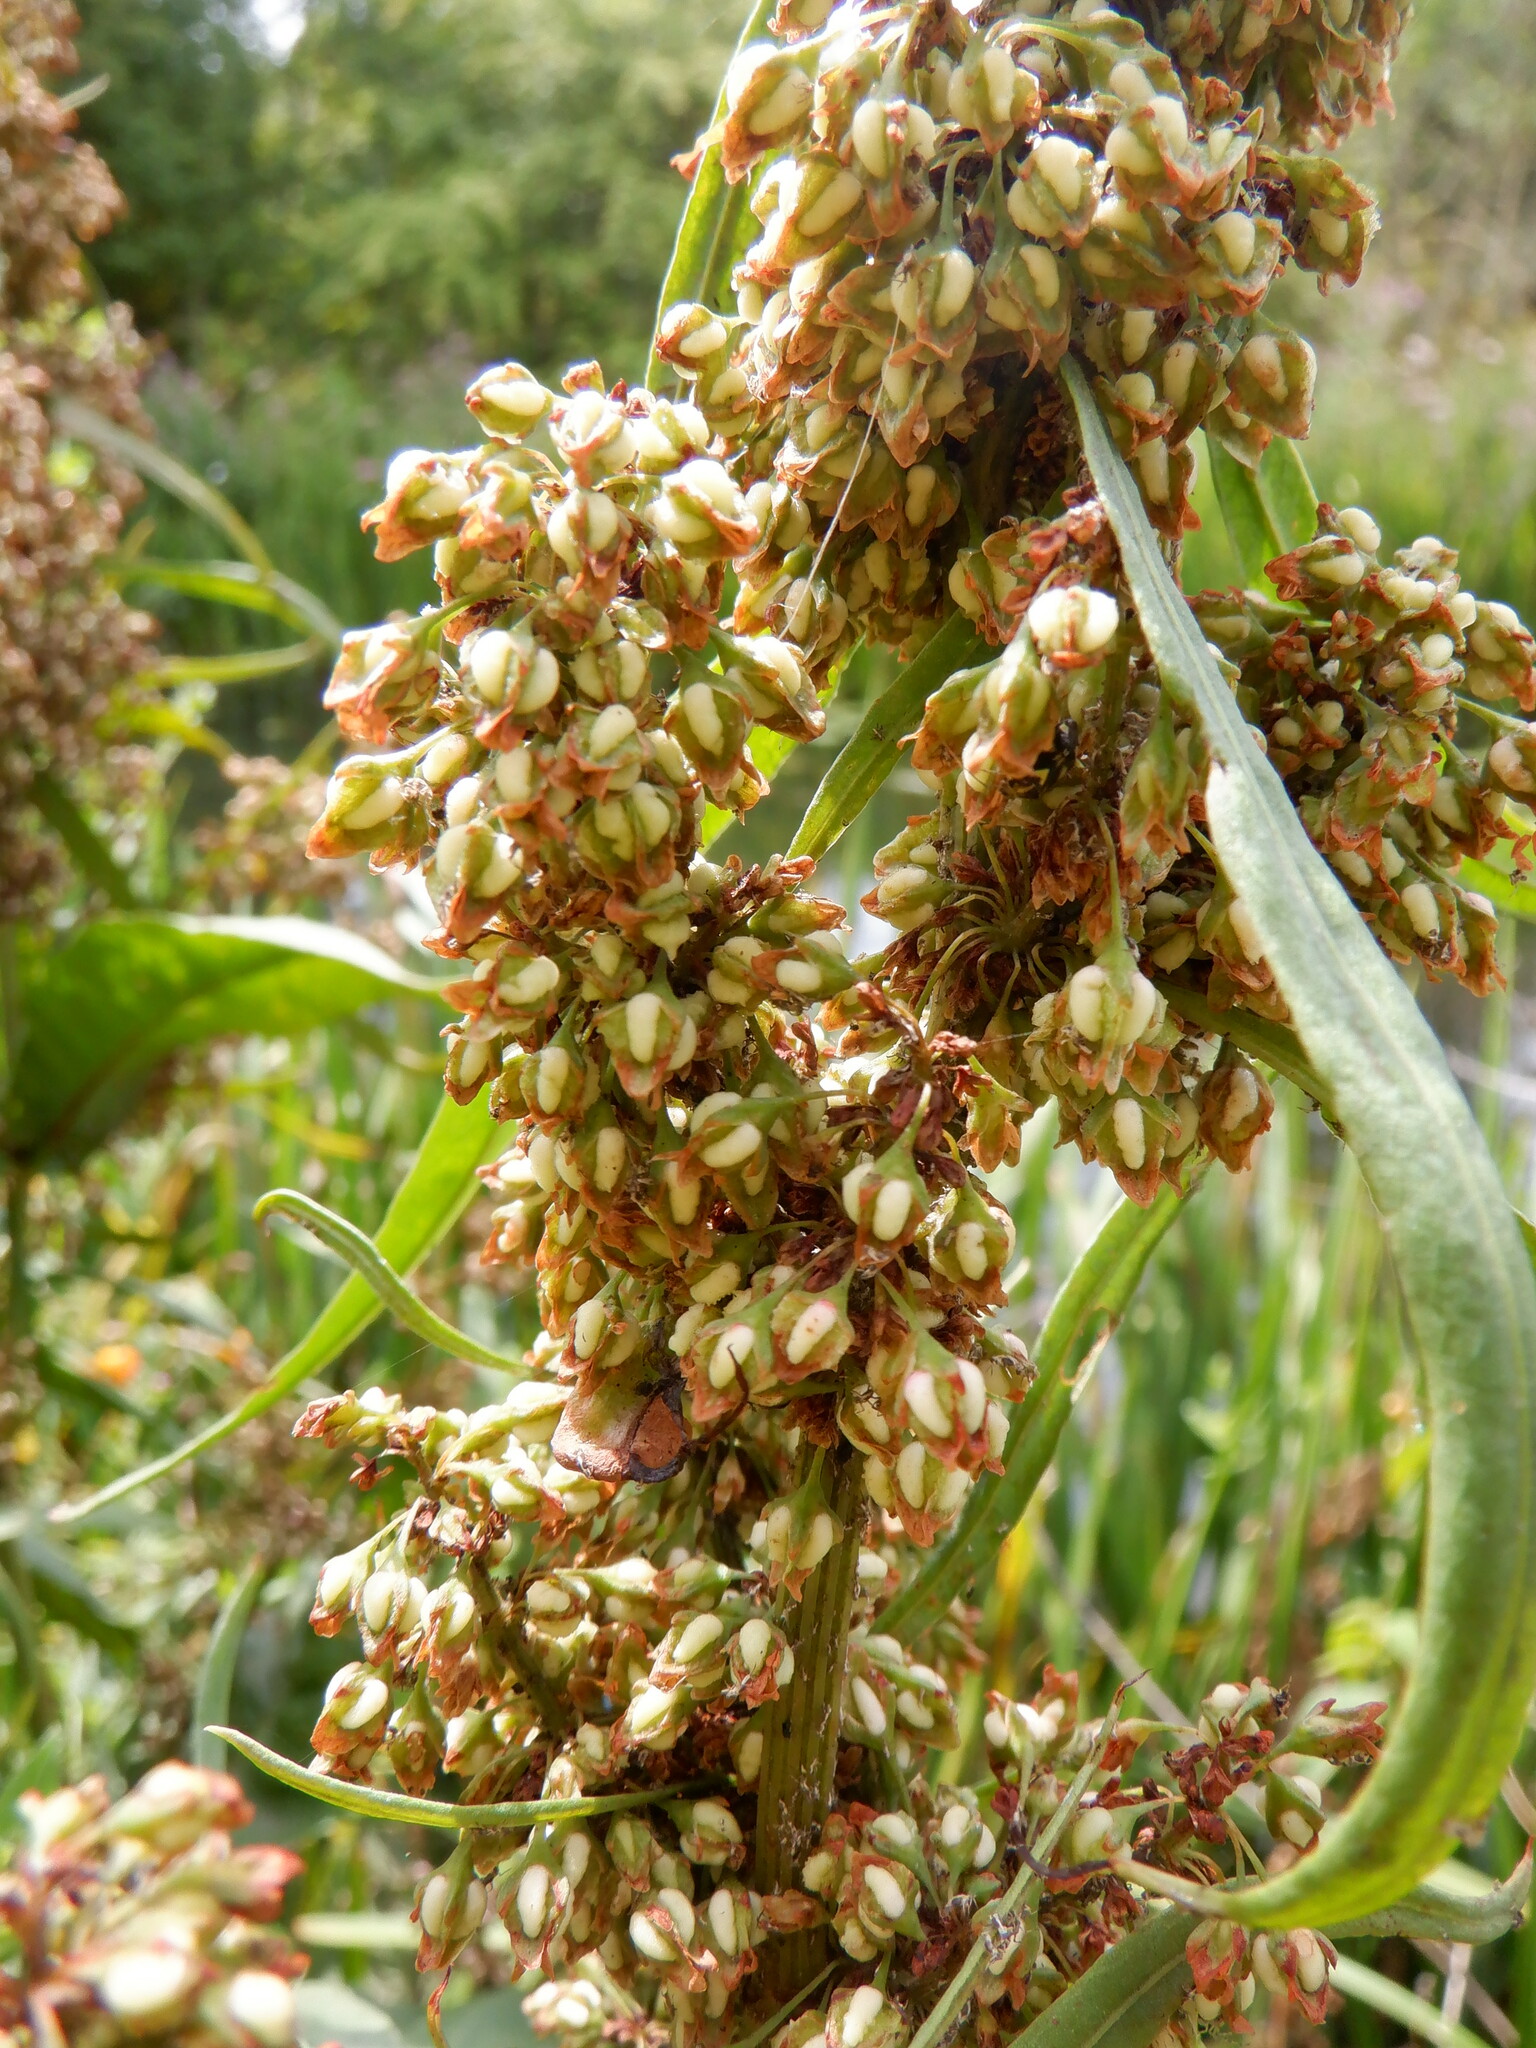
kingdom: Plantae
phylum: Tracheophyta
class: Magnoliopsida
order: Caryophyllales
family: Polygonaceae
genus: Rumex
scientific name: Rumex hydrolapathum
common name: Water dock
